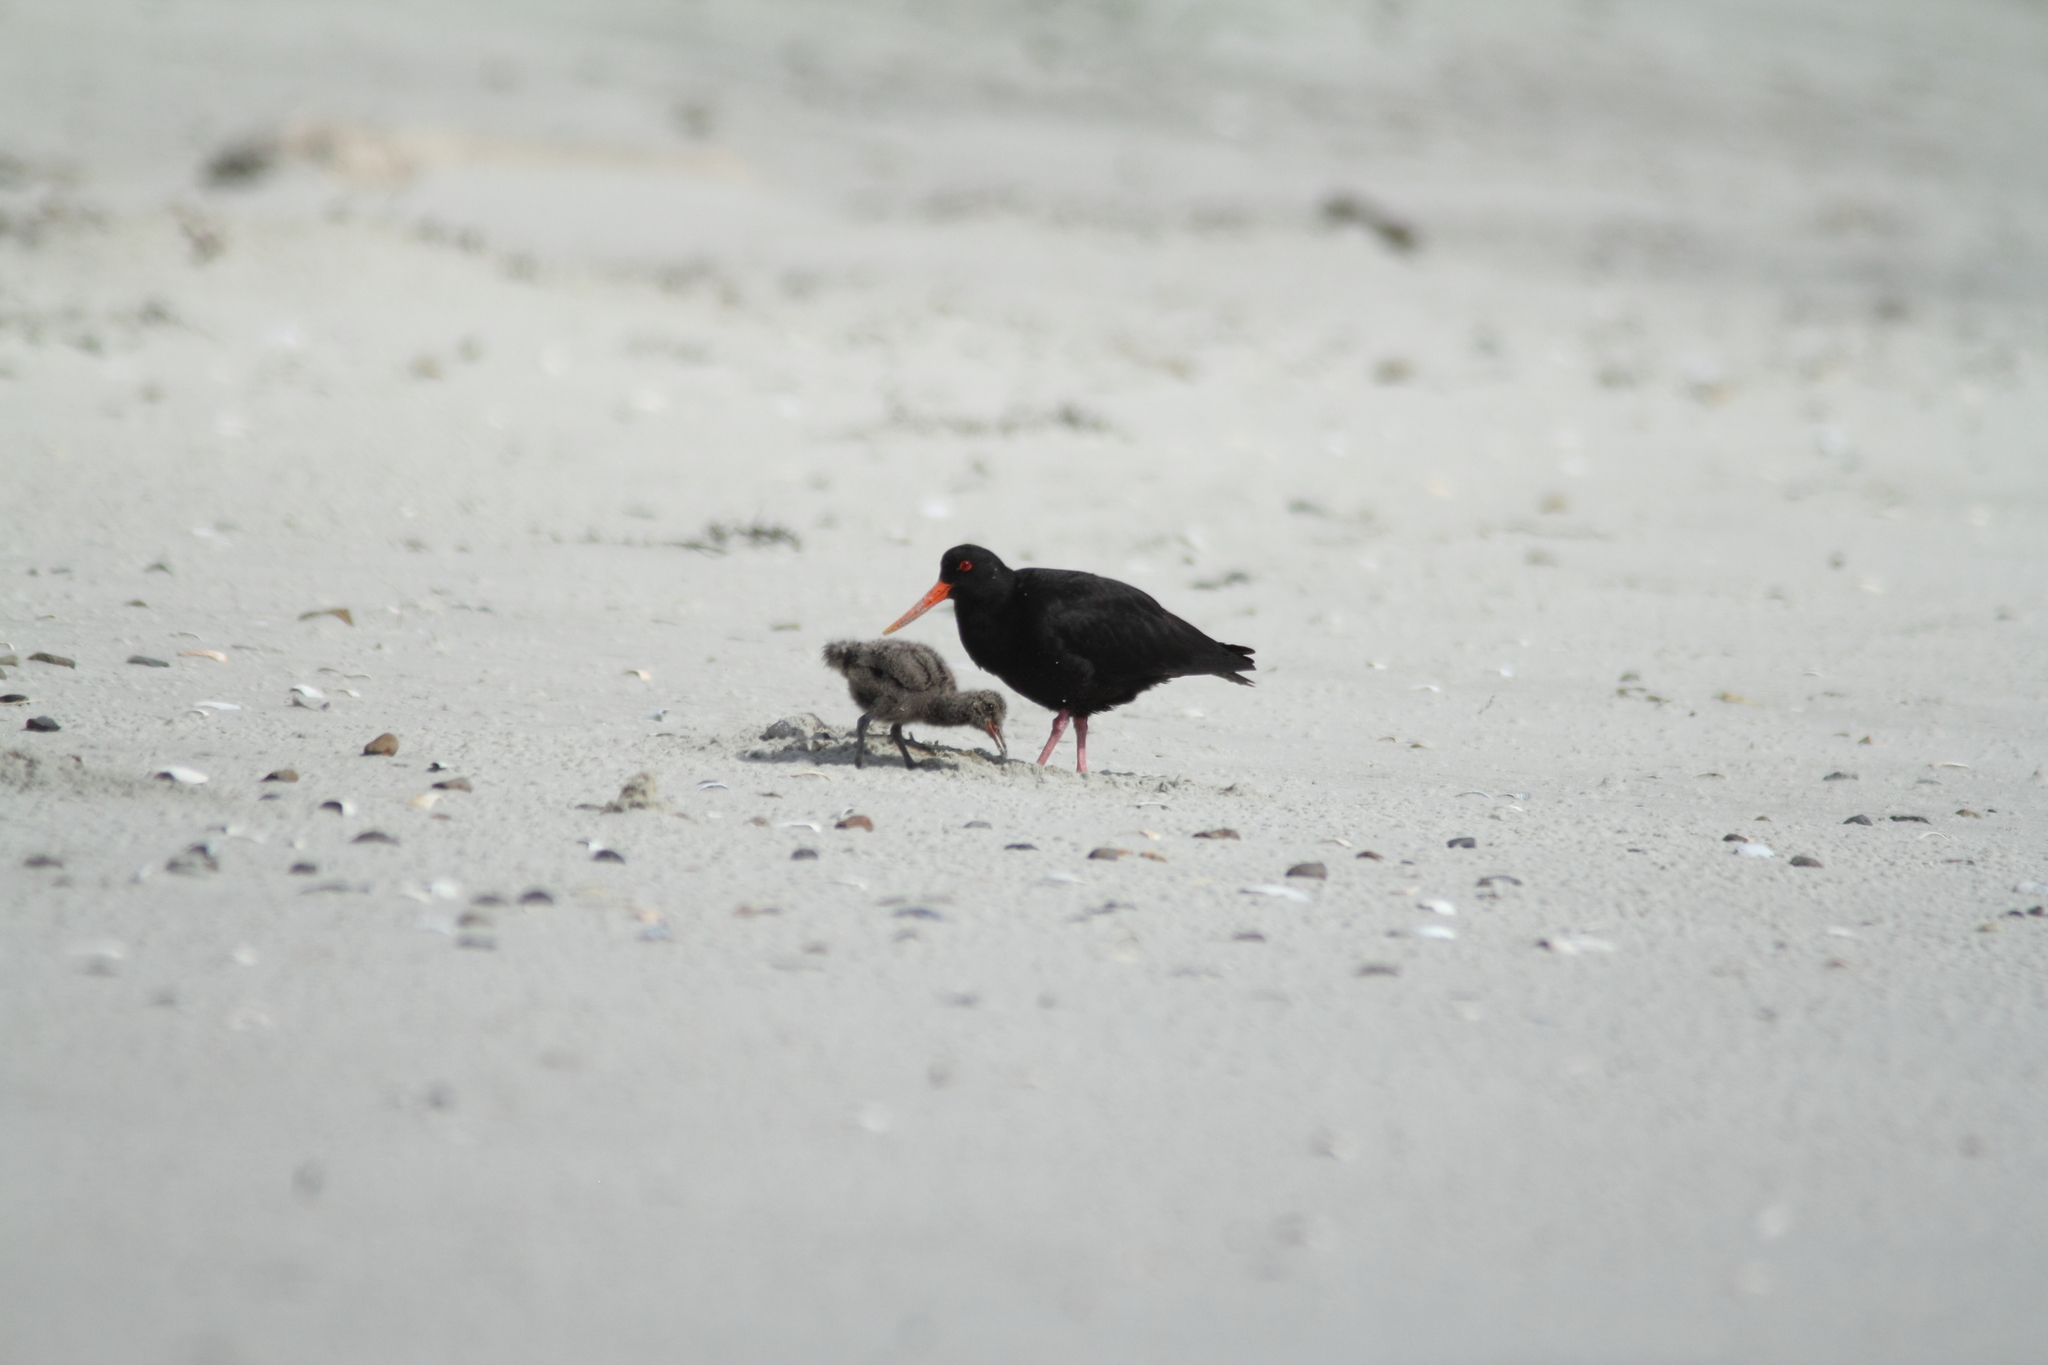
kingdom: Animalia
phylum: Chordata
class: Aves
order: Charadriiformes
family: Haematopodidae
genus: Haematopus
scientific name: Haematopus unicolor
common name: Variable oystercatcher
